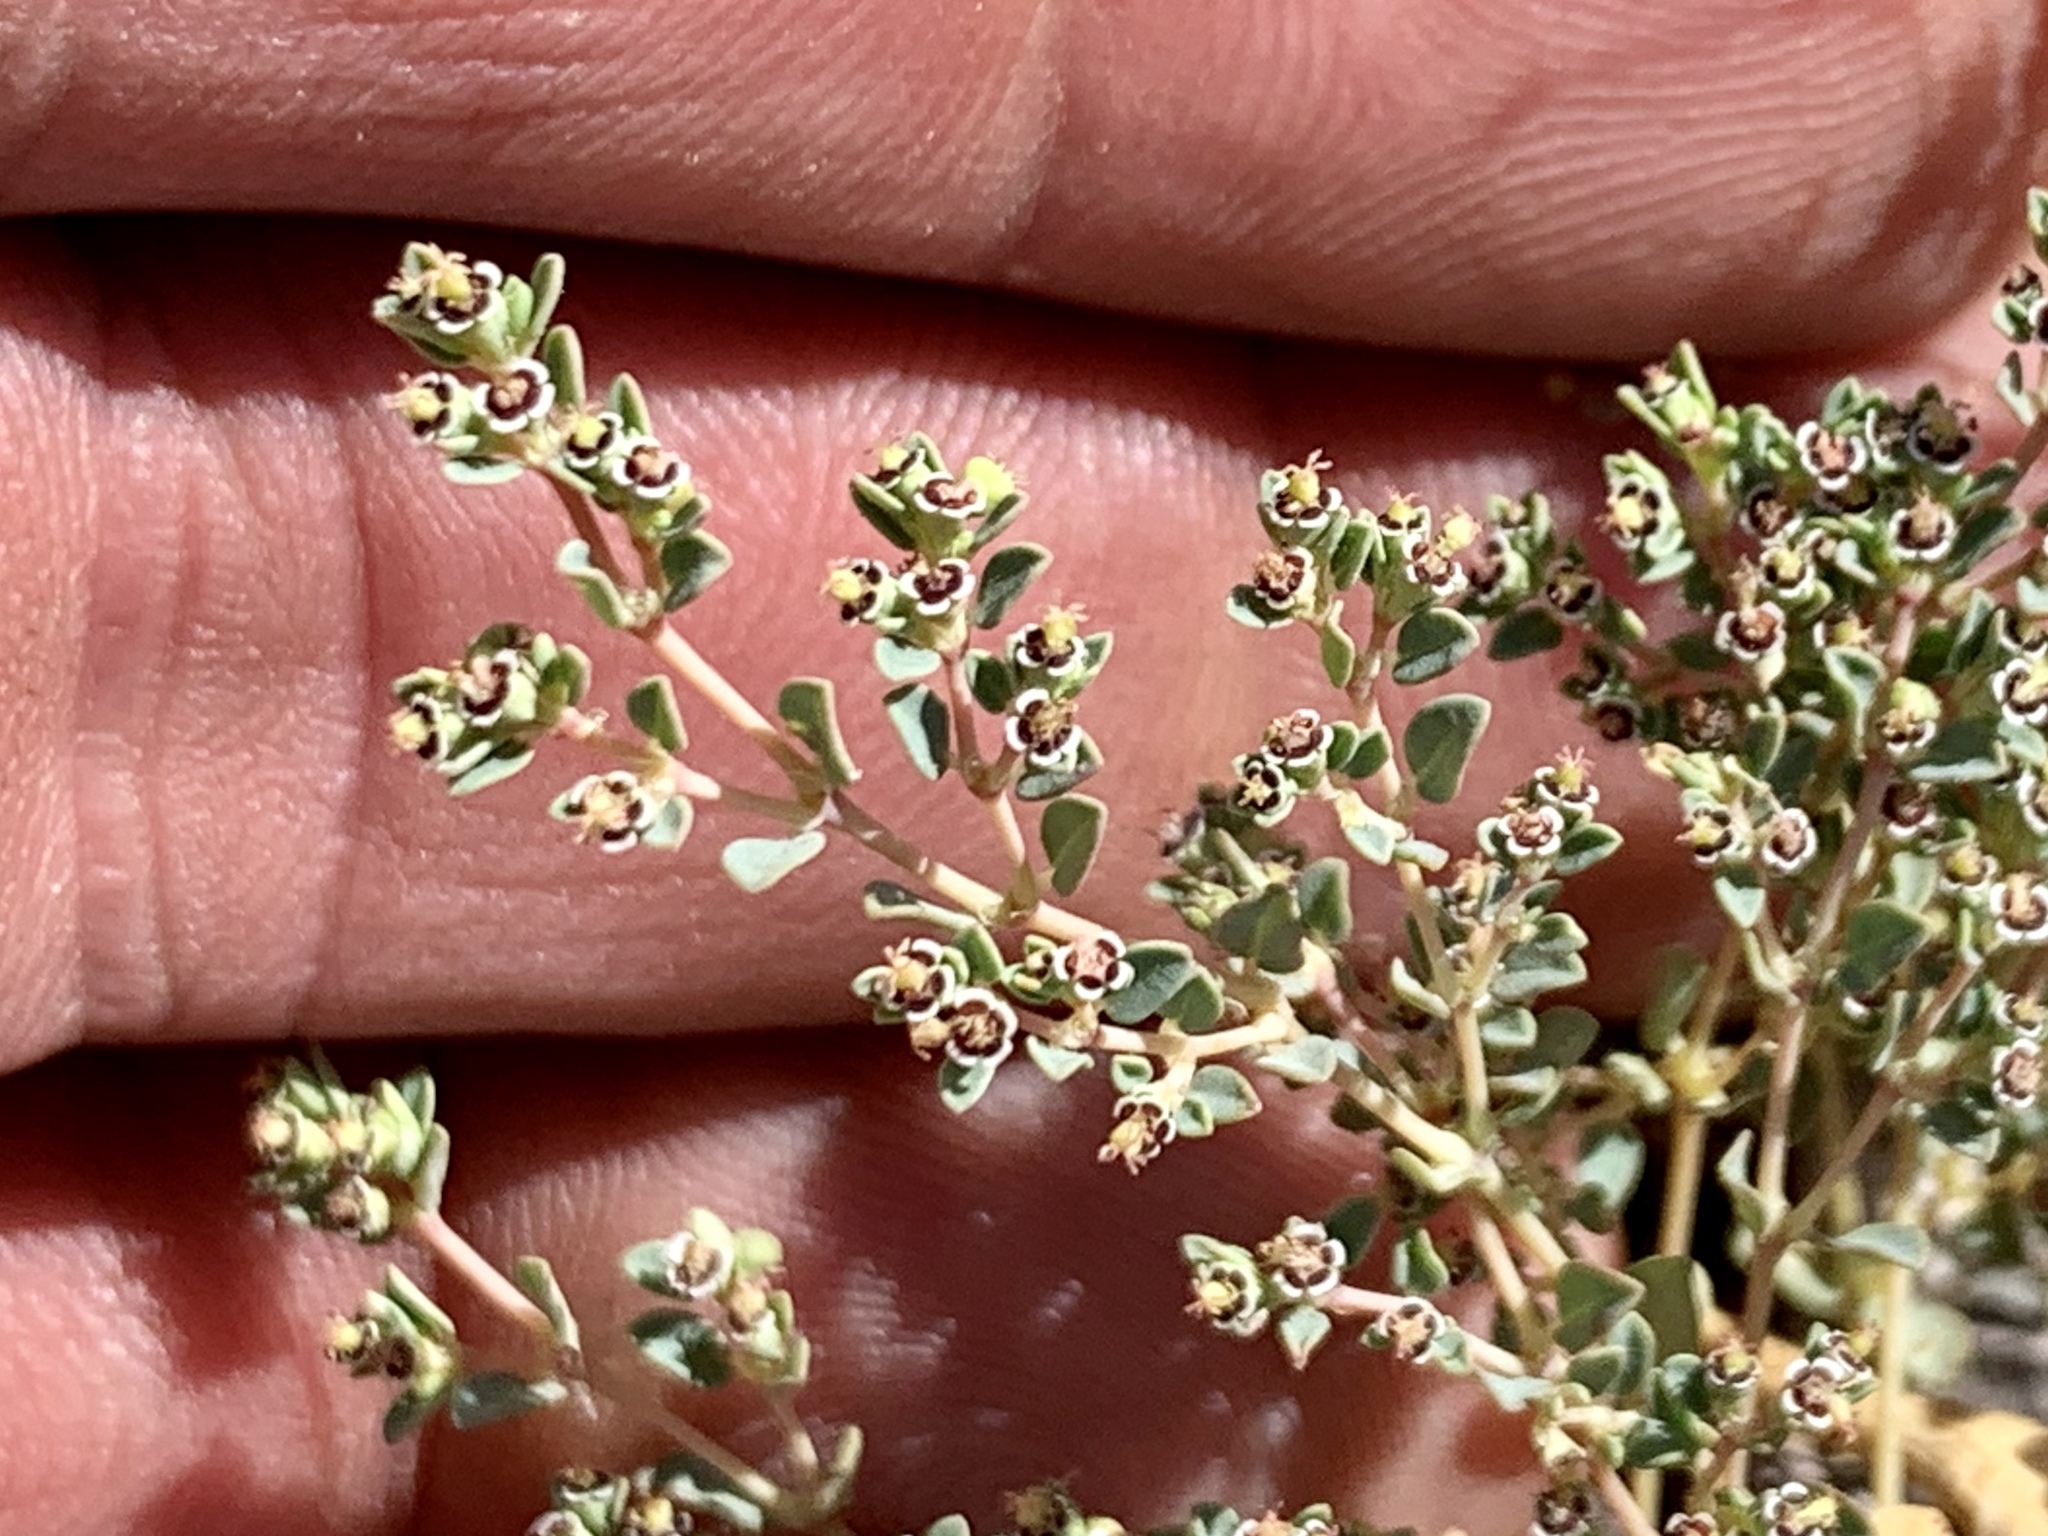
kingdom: Plantae
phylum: Tracheophyta
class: Magnoliopsida
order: Malpighiales
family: Euphorbiaceae
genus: Euphorbia
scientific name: Euphorbia polycarpa
